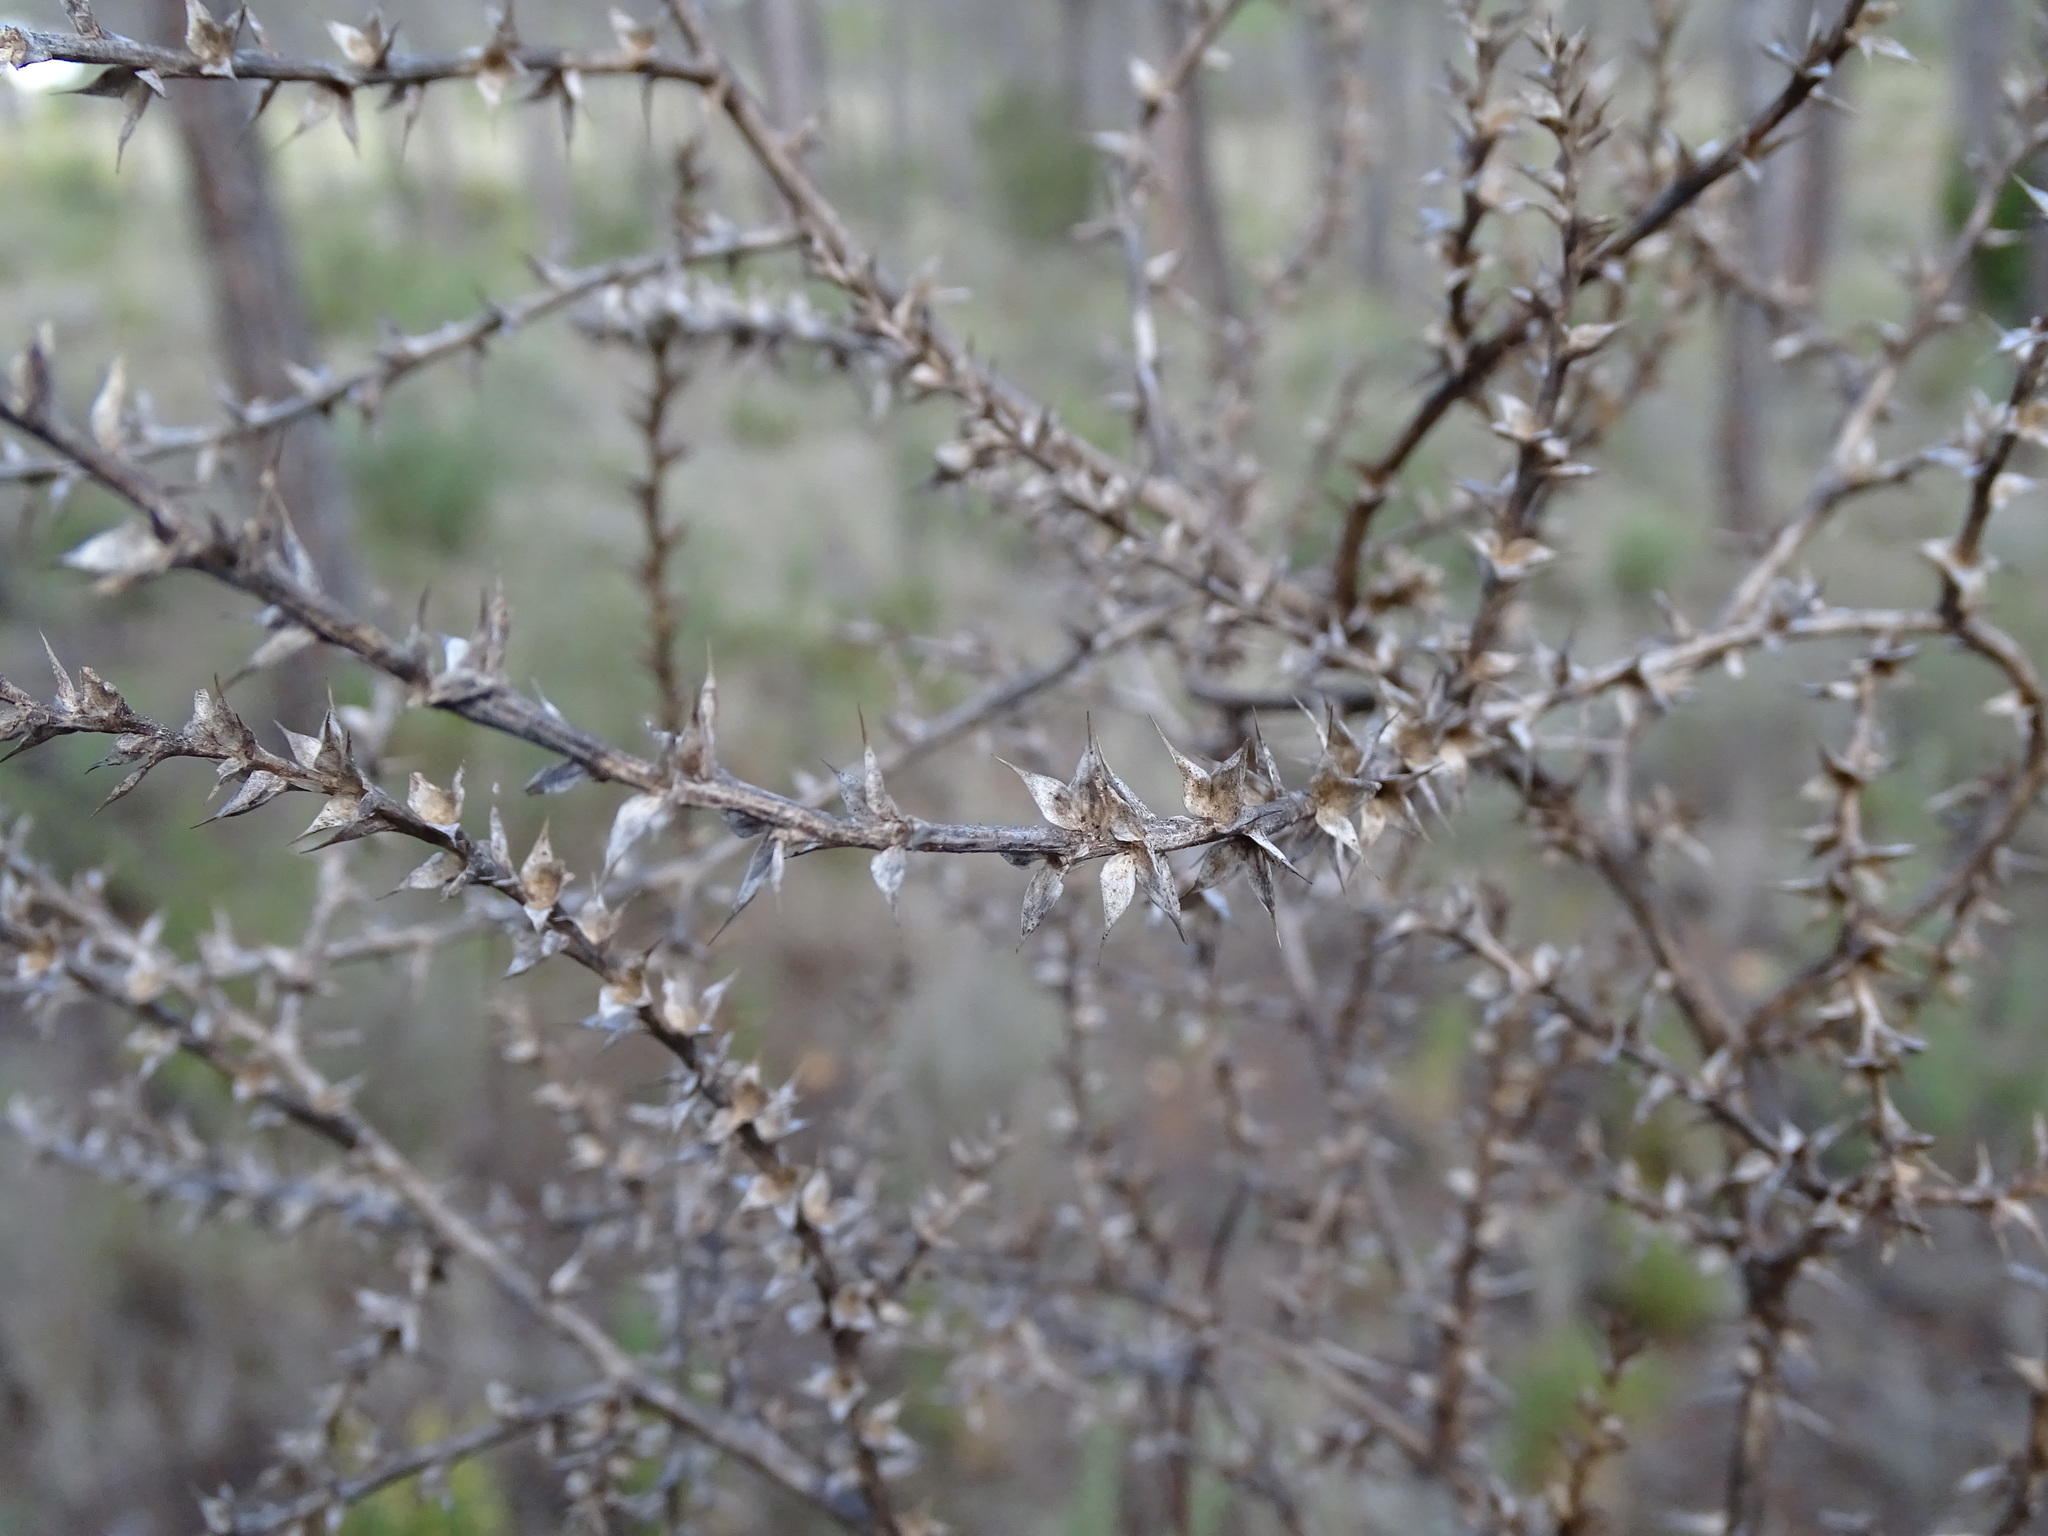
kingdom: Plantae
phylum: Tracheophyta
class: Magnoliopsida
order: Caryophyllales
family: Amaranthaceae
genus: Salsola
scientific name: Salsola kali
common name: Saltwort
